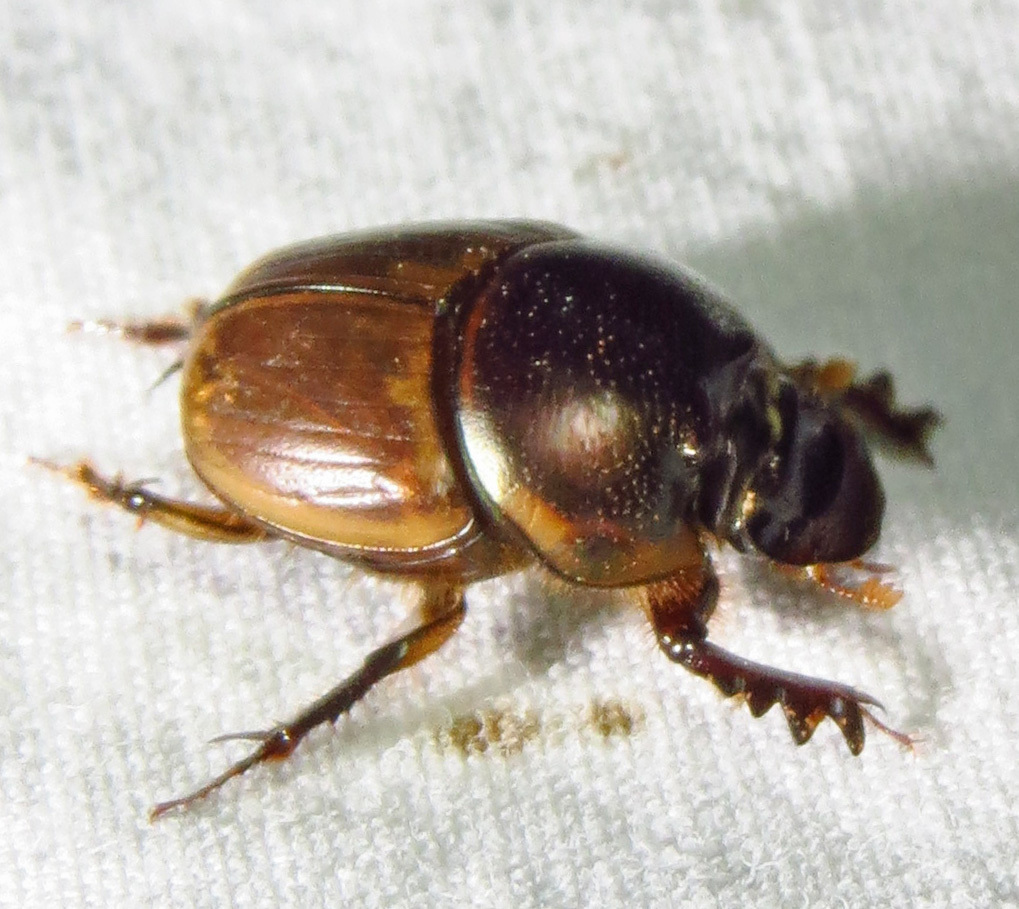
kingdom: Animalia
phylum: Arthropoda
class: Insecta
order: Coleoptera
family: Scarabaeidae
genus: Digitonthophagus
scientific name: Digitonthophagus gazella
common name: Brown dung beetle
